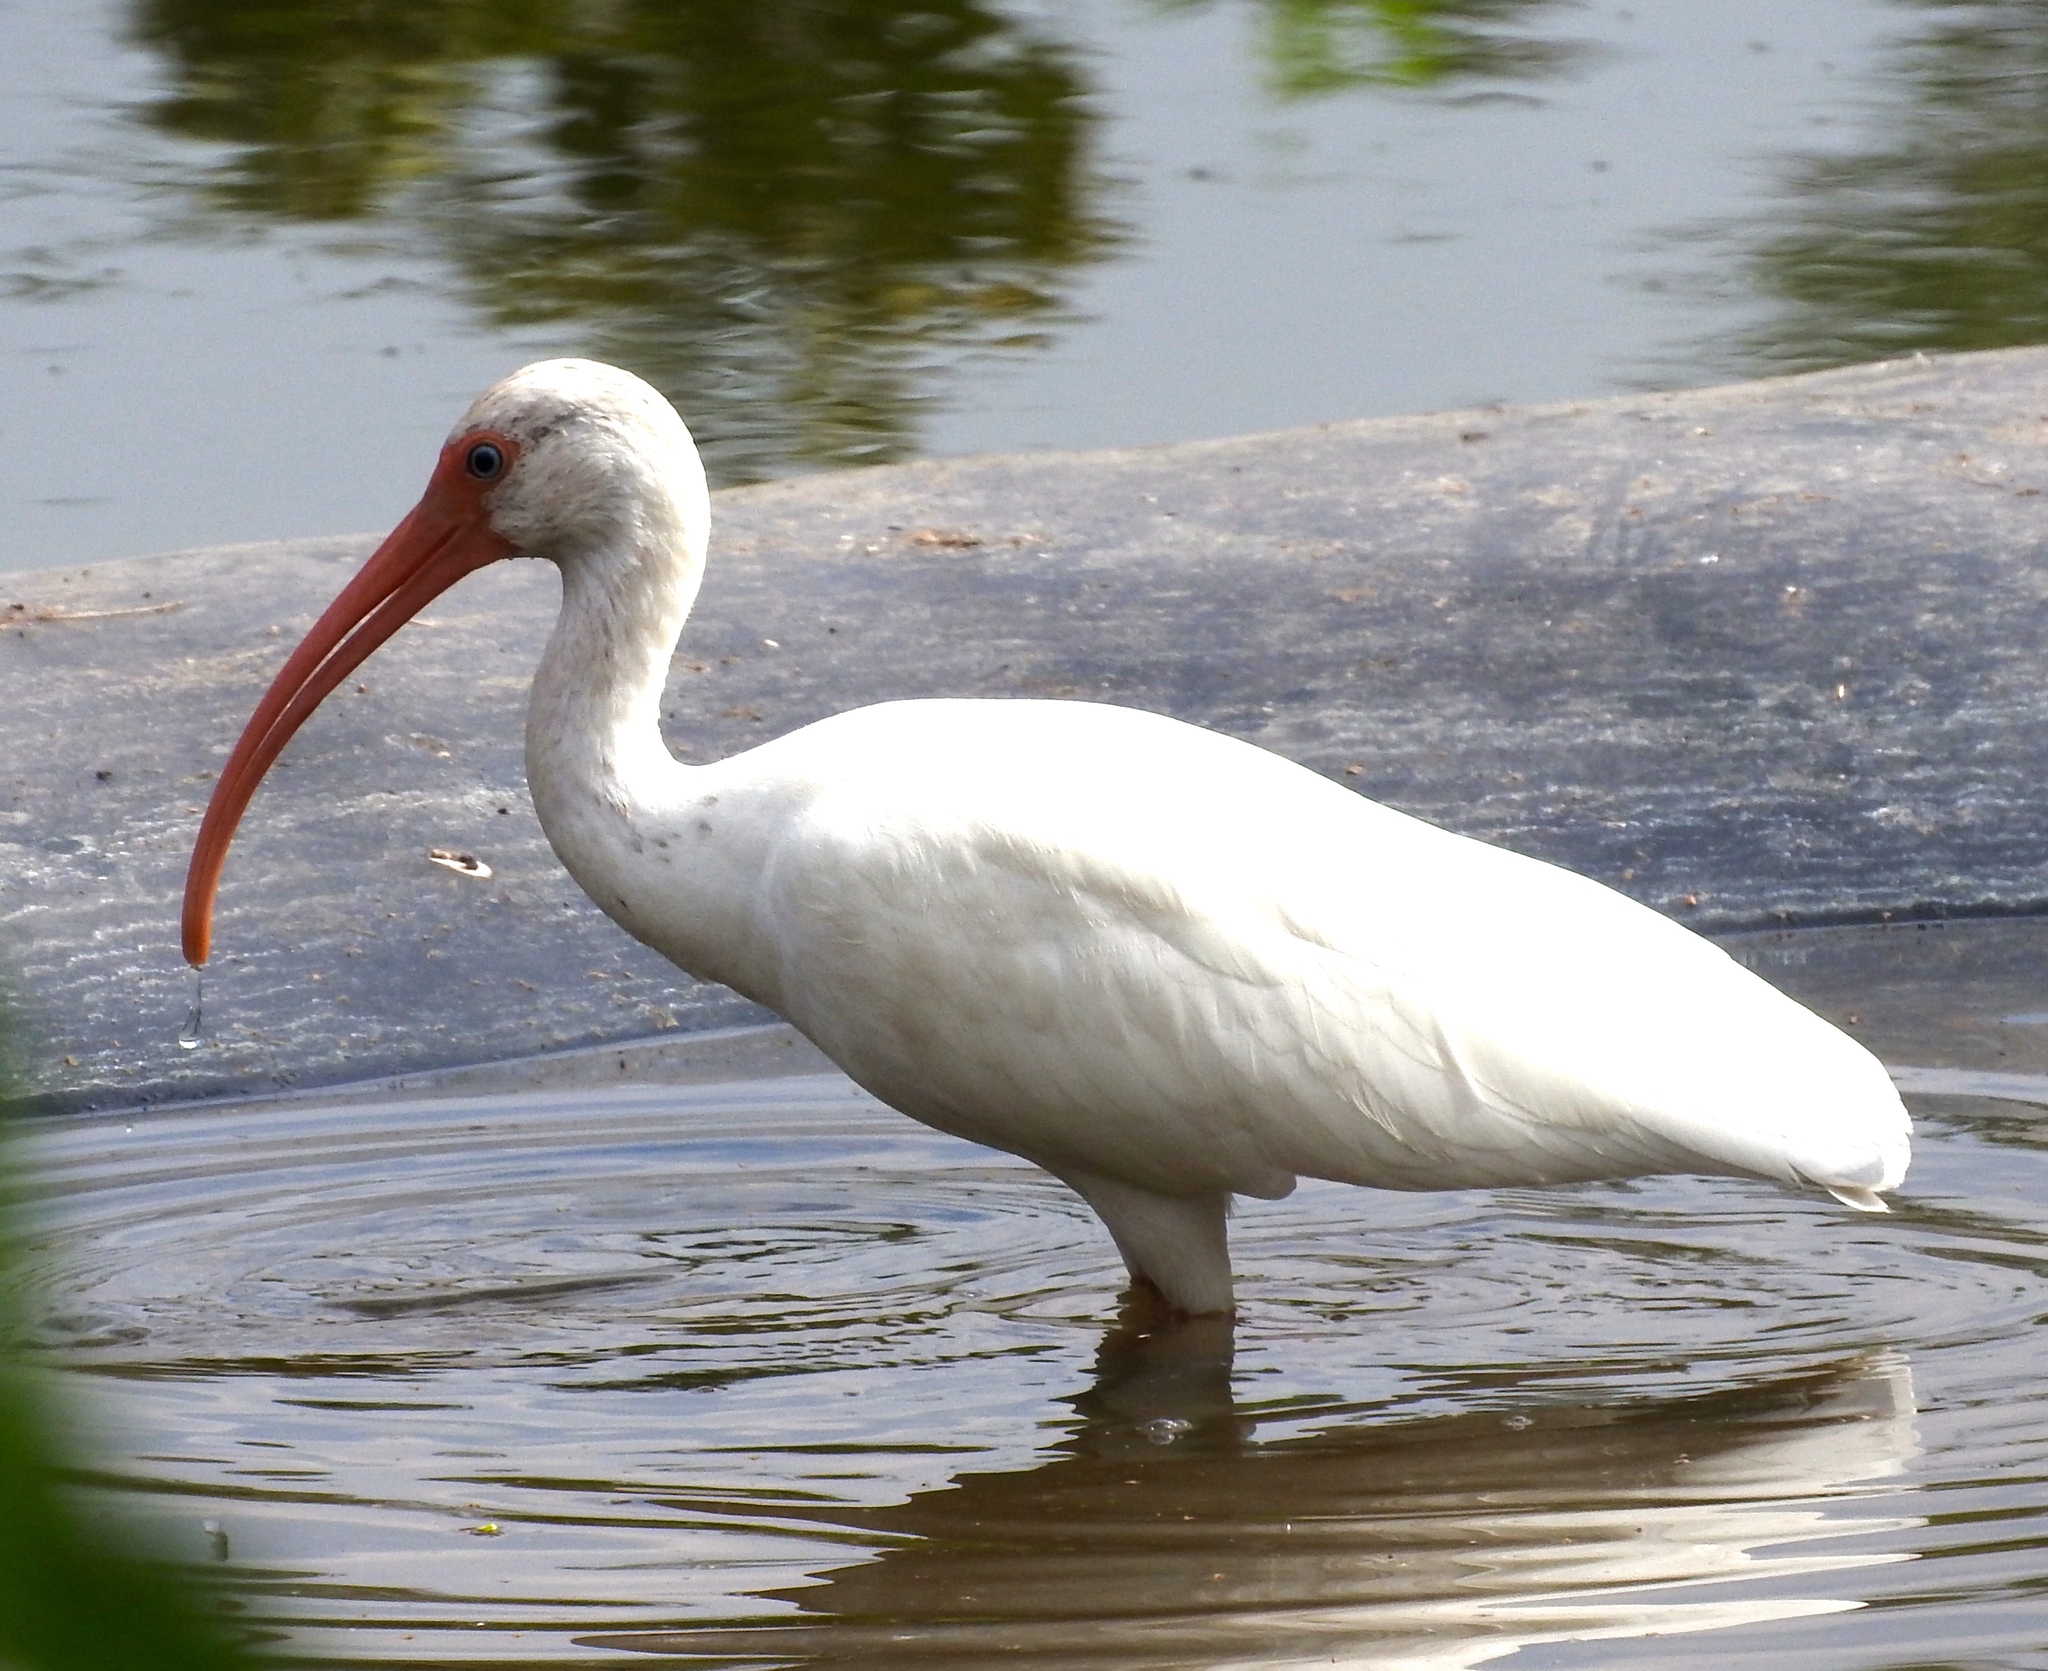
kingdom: Animalia
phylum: Chordata
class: Aves
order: Pelecaniformes
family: Threskiornithidae
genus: Eudocimus
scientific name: Eudocimus albus
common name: White ibis
